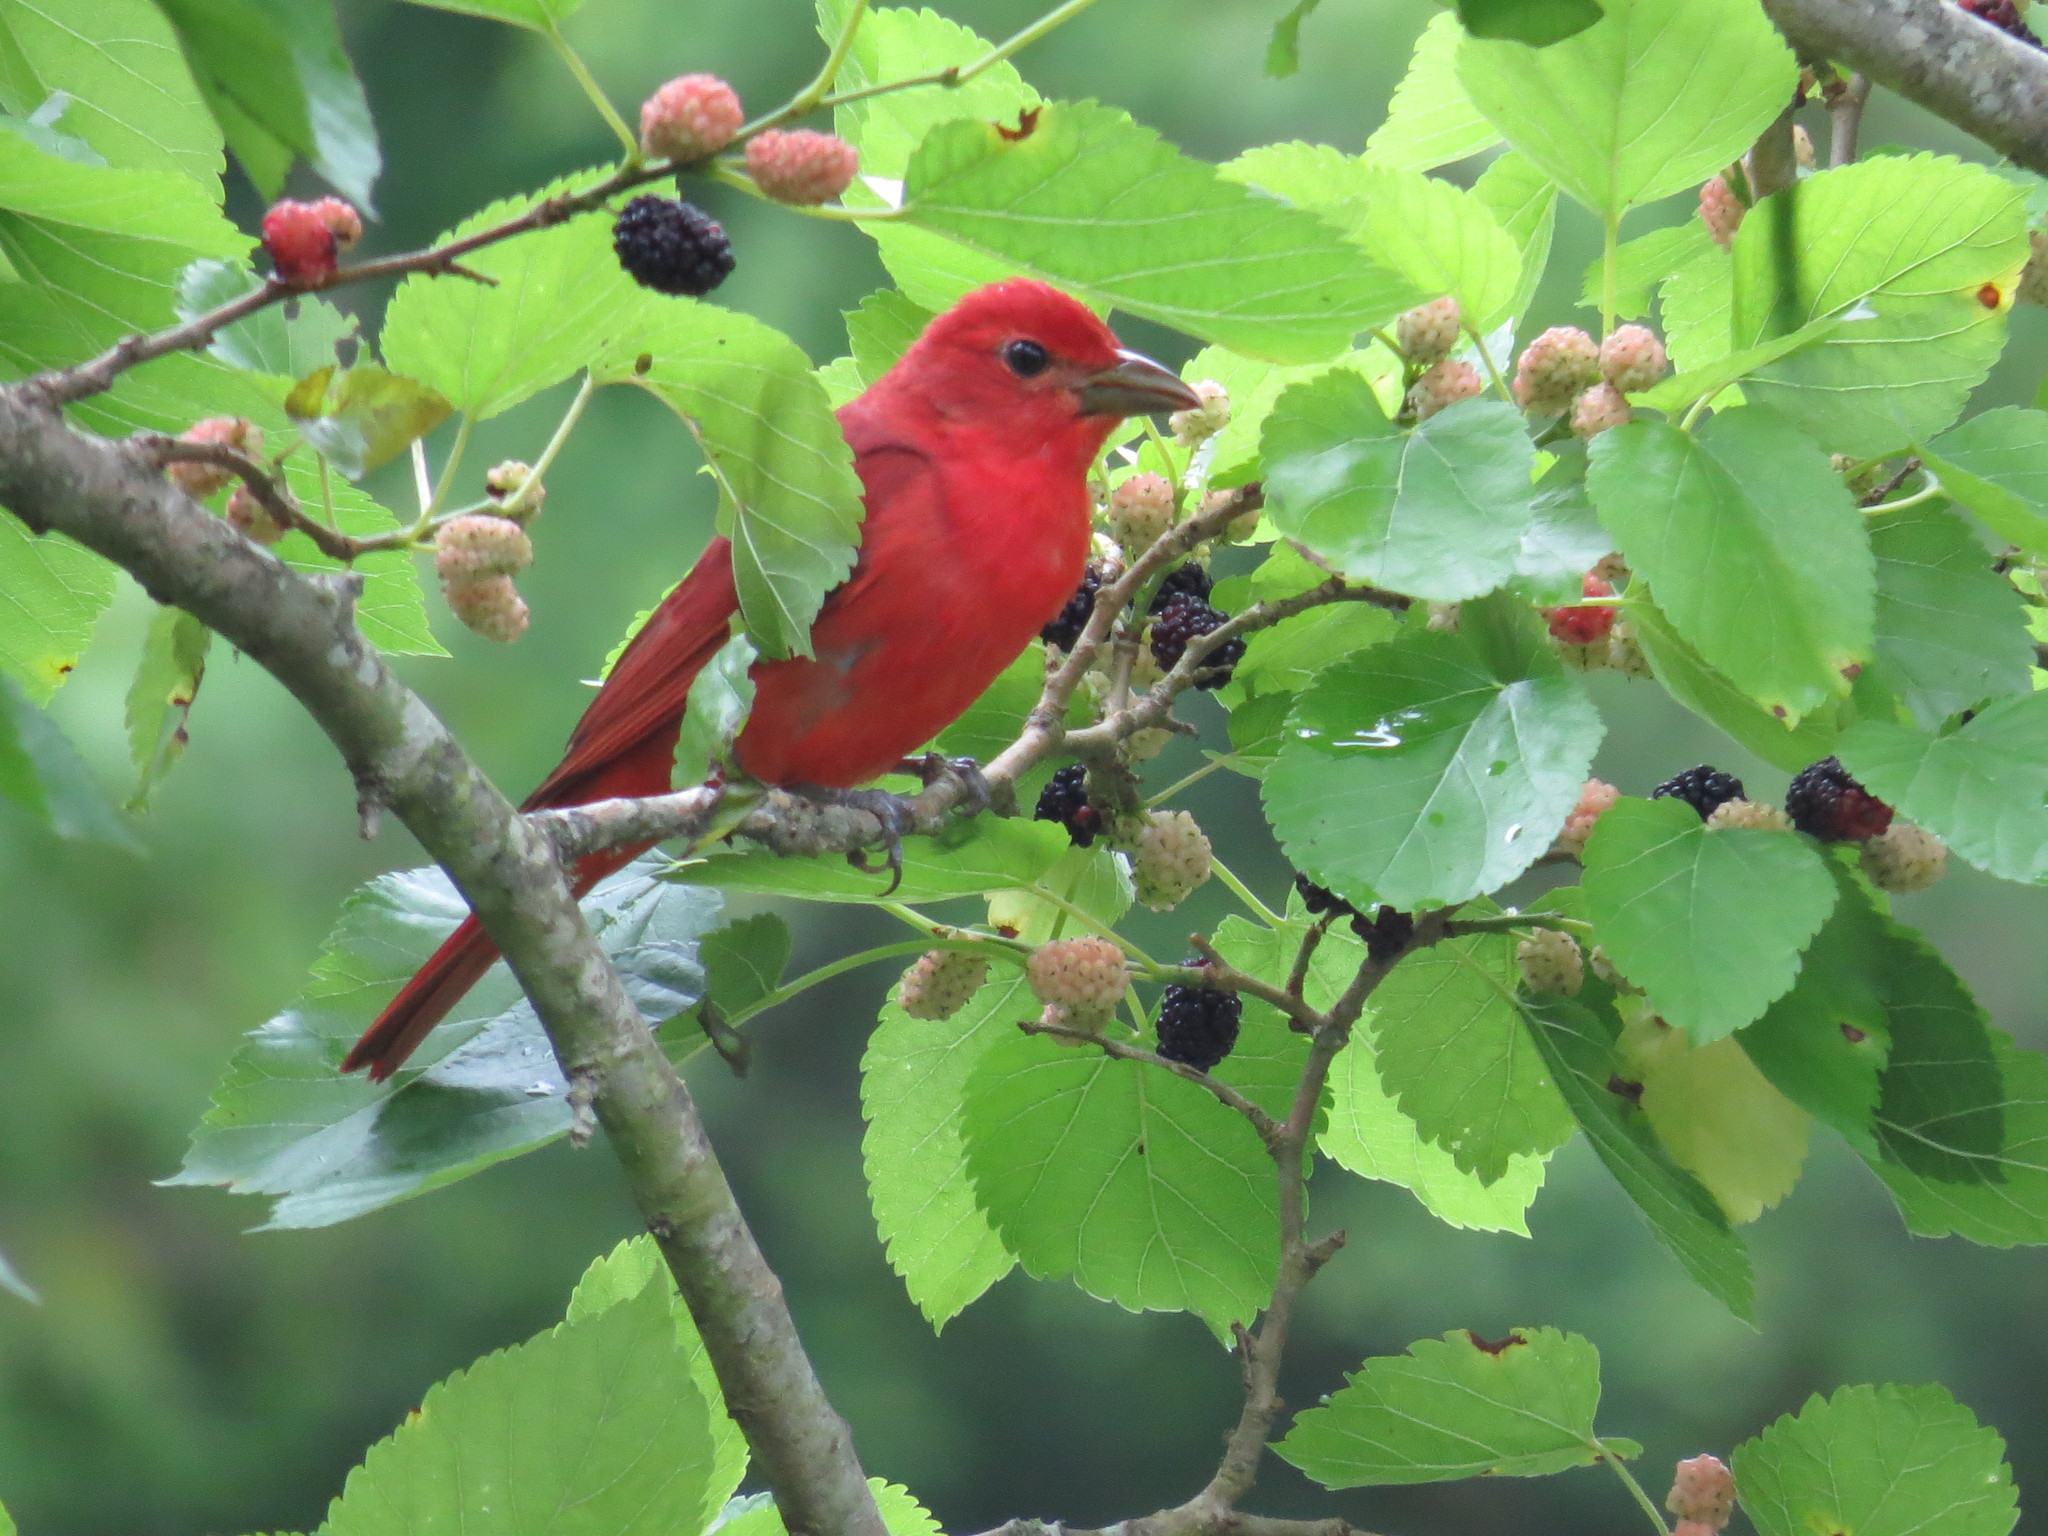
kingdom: Animalia
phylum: Chordata
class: Aves
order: Passeriformes
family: Cardinalidae
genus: Piranga
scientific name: Piranga rubra
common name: Summer tanager
